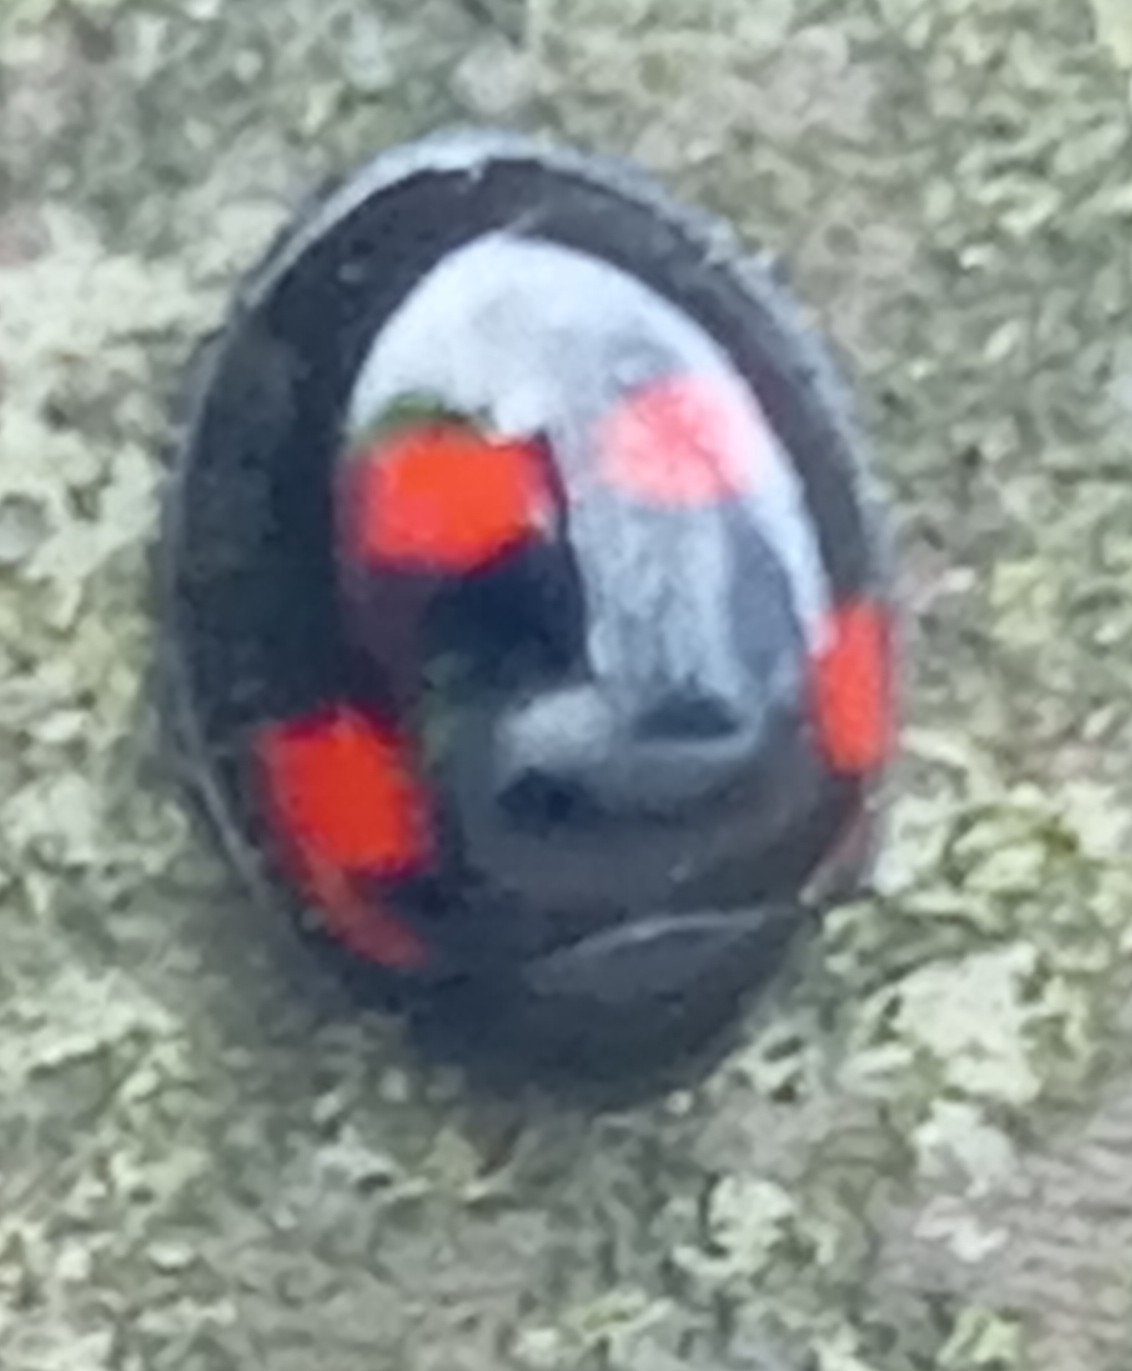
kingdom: Animalia
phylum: Arthropoda
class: Insecta
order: Coleoptera
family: Coccinellidae
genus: Brumus
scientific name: Brumus quadripustulatus
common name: Ladybird beetle
